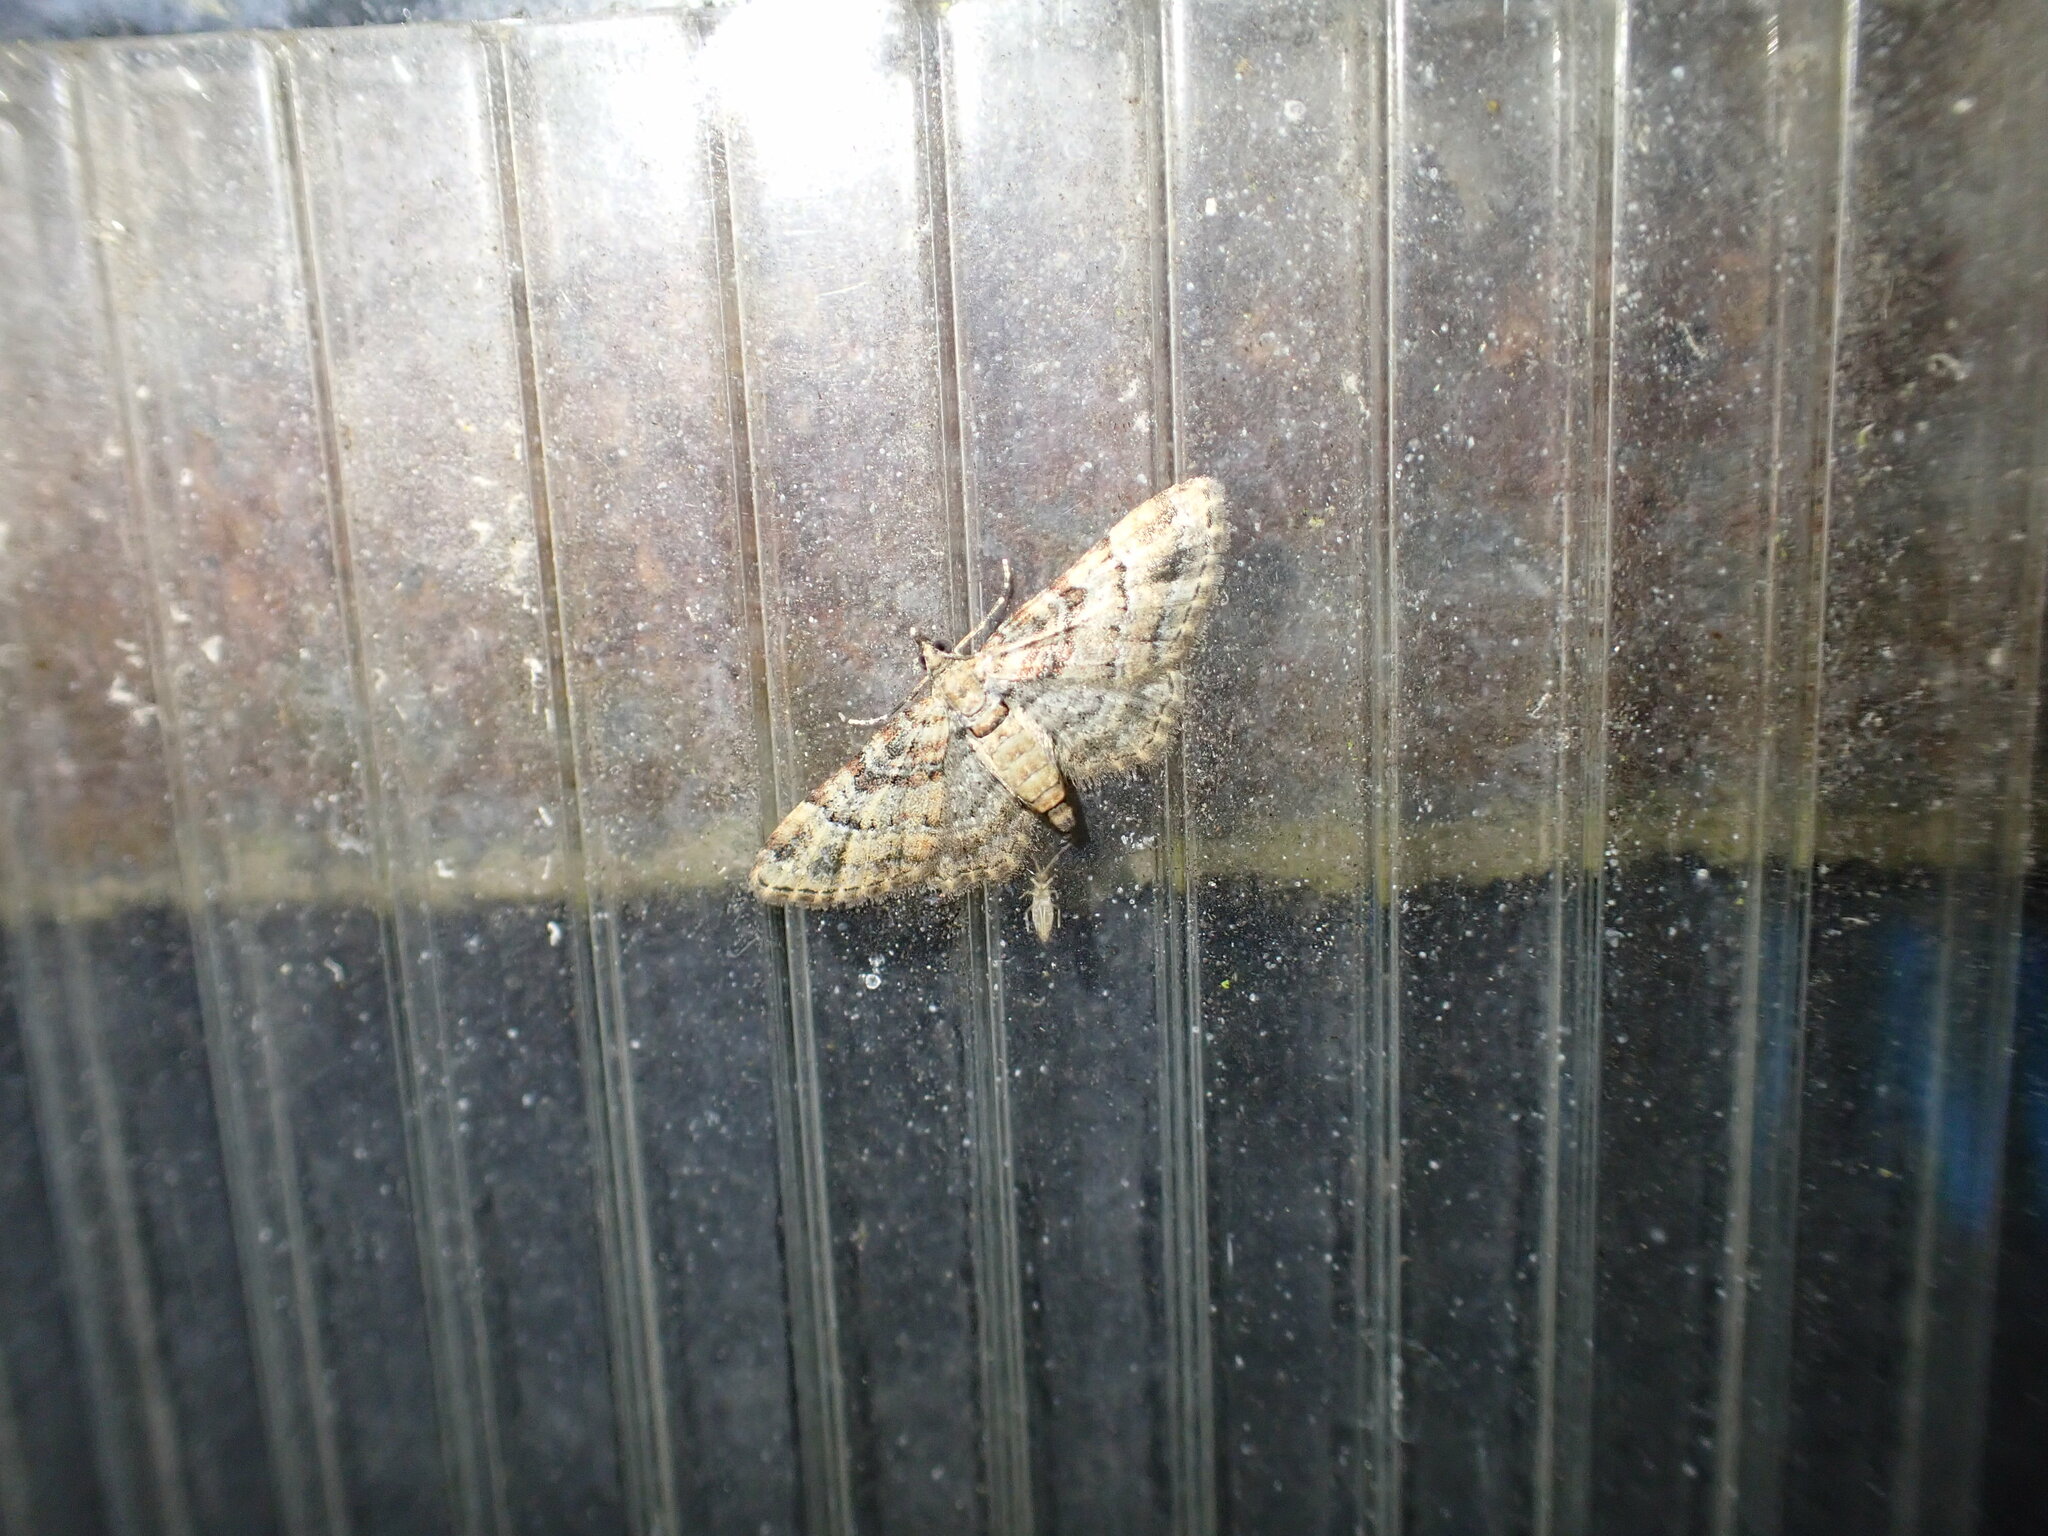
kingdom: Animalia
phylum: Arthropoda
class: Insecta
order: Lepidoptera
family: Geometridae
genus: Gymnoscelis
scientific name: Gymnoscelis rufifasciata
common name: Double-striped pug
